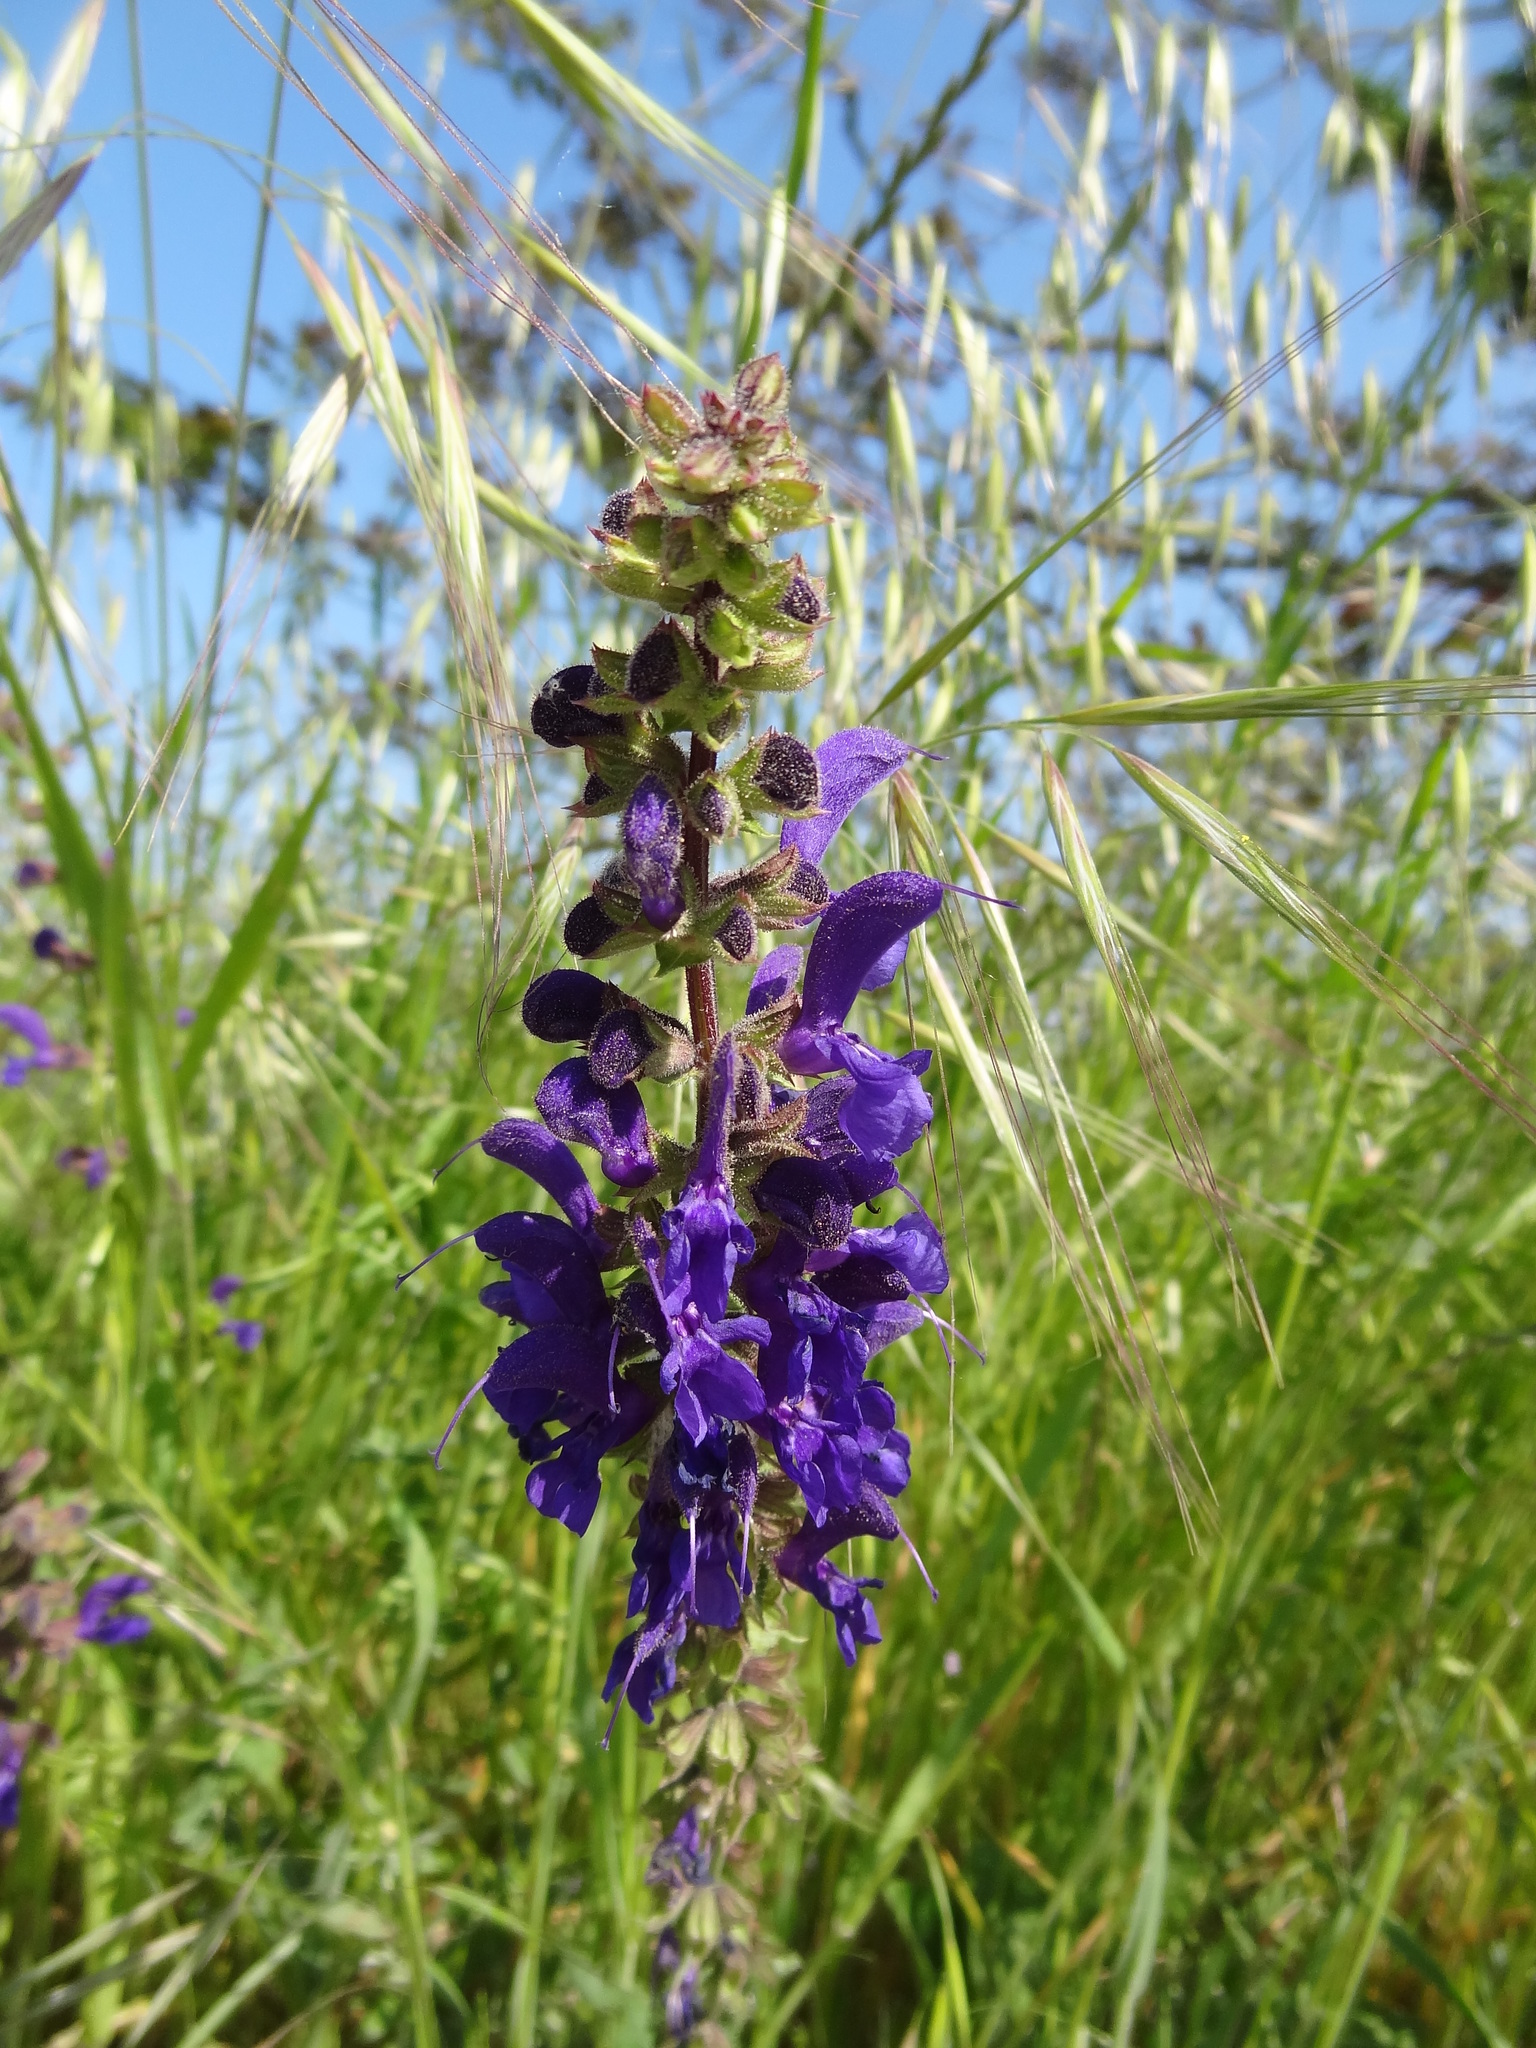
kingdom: Plantae
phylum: Tracheophyta
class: Magnoliopsida
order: Lamiales
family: Lamiaceae
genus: Salvia
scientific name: Salvia pratensis
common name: Meadow sage
